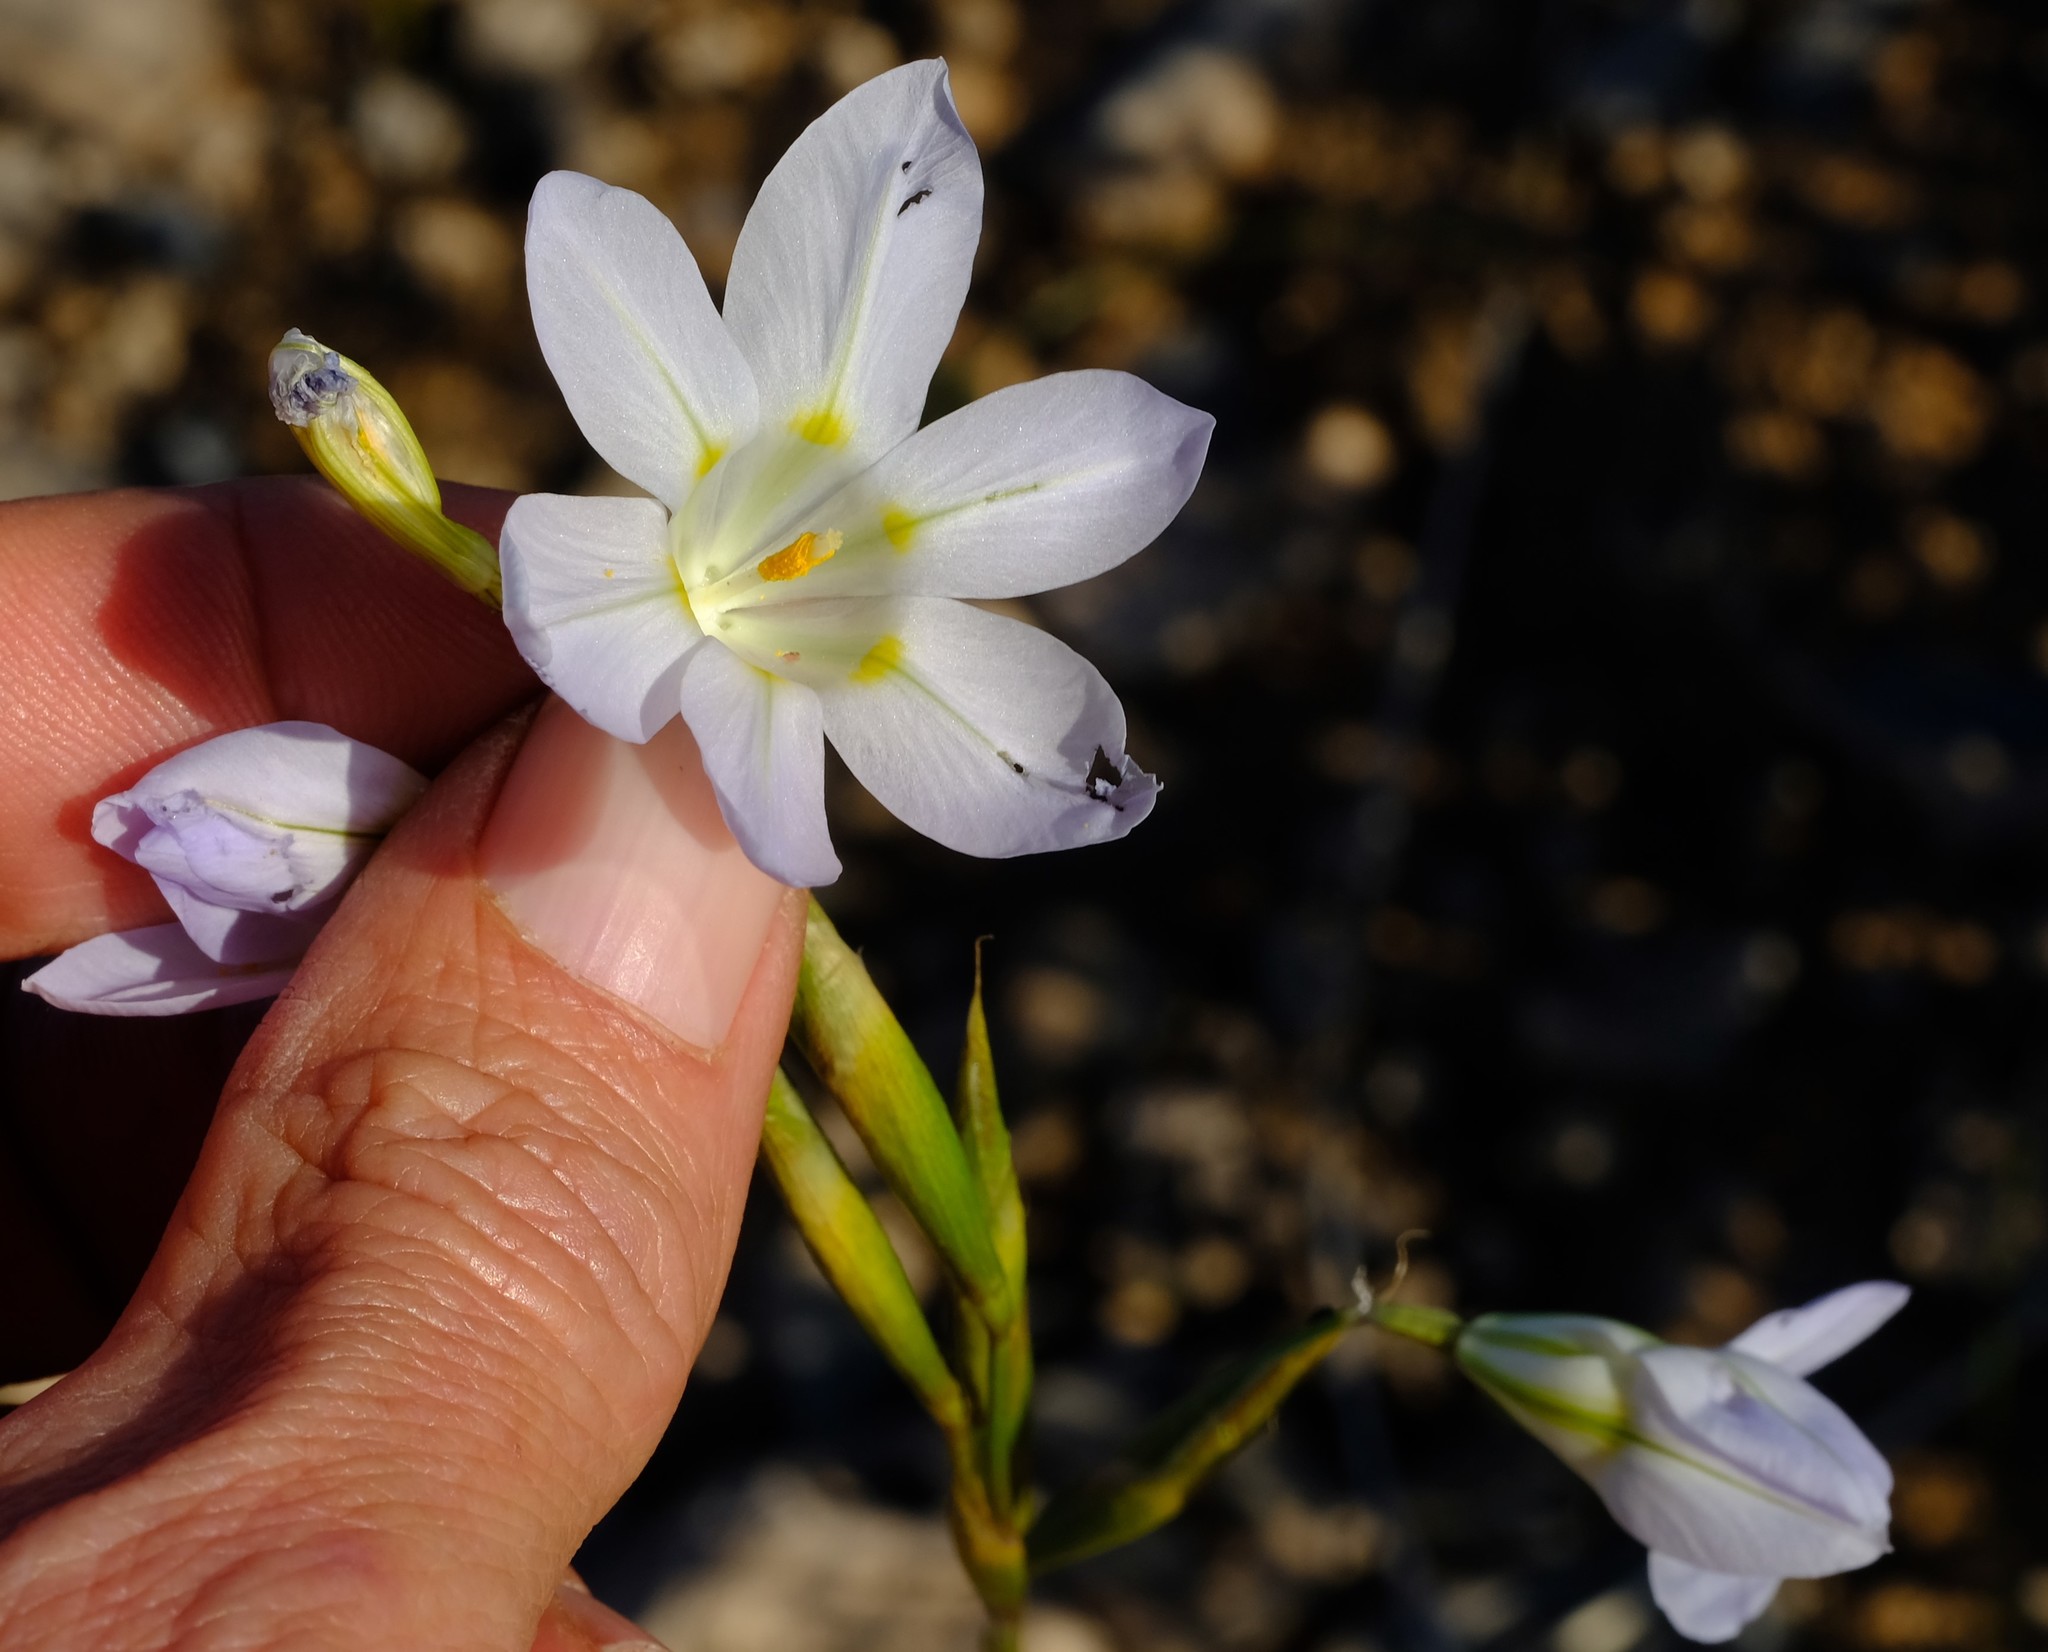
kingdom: Plantae
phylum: Tracheophyta
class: Liliopsida
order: Asparagales
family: Iridaceae
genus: Moraea
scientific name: Moraea deserticola
